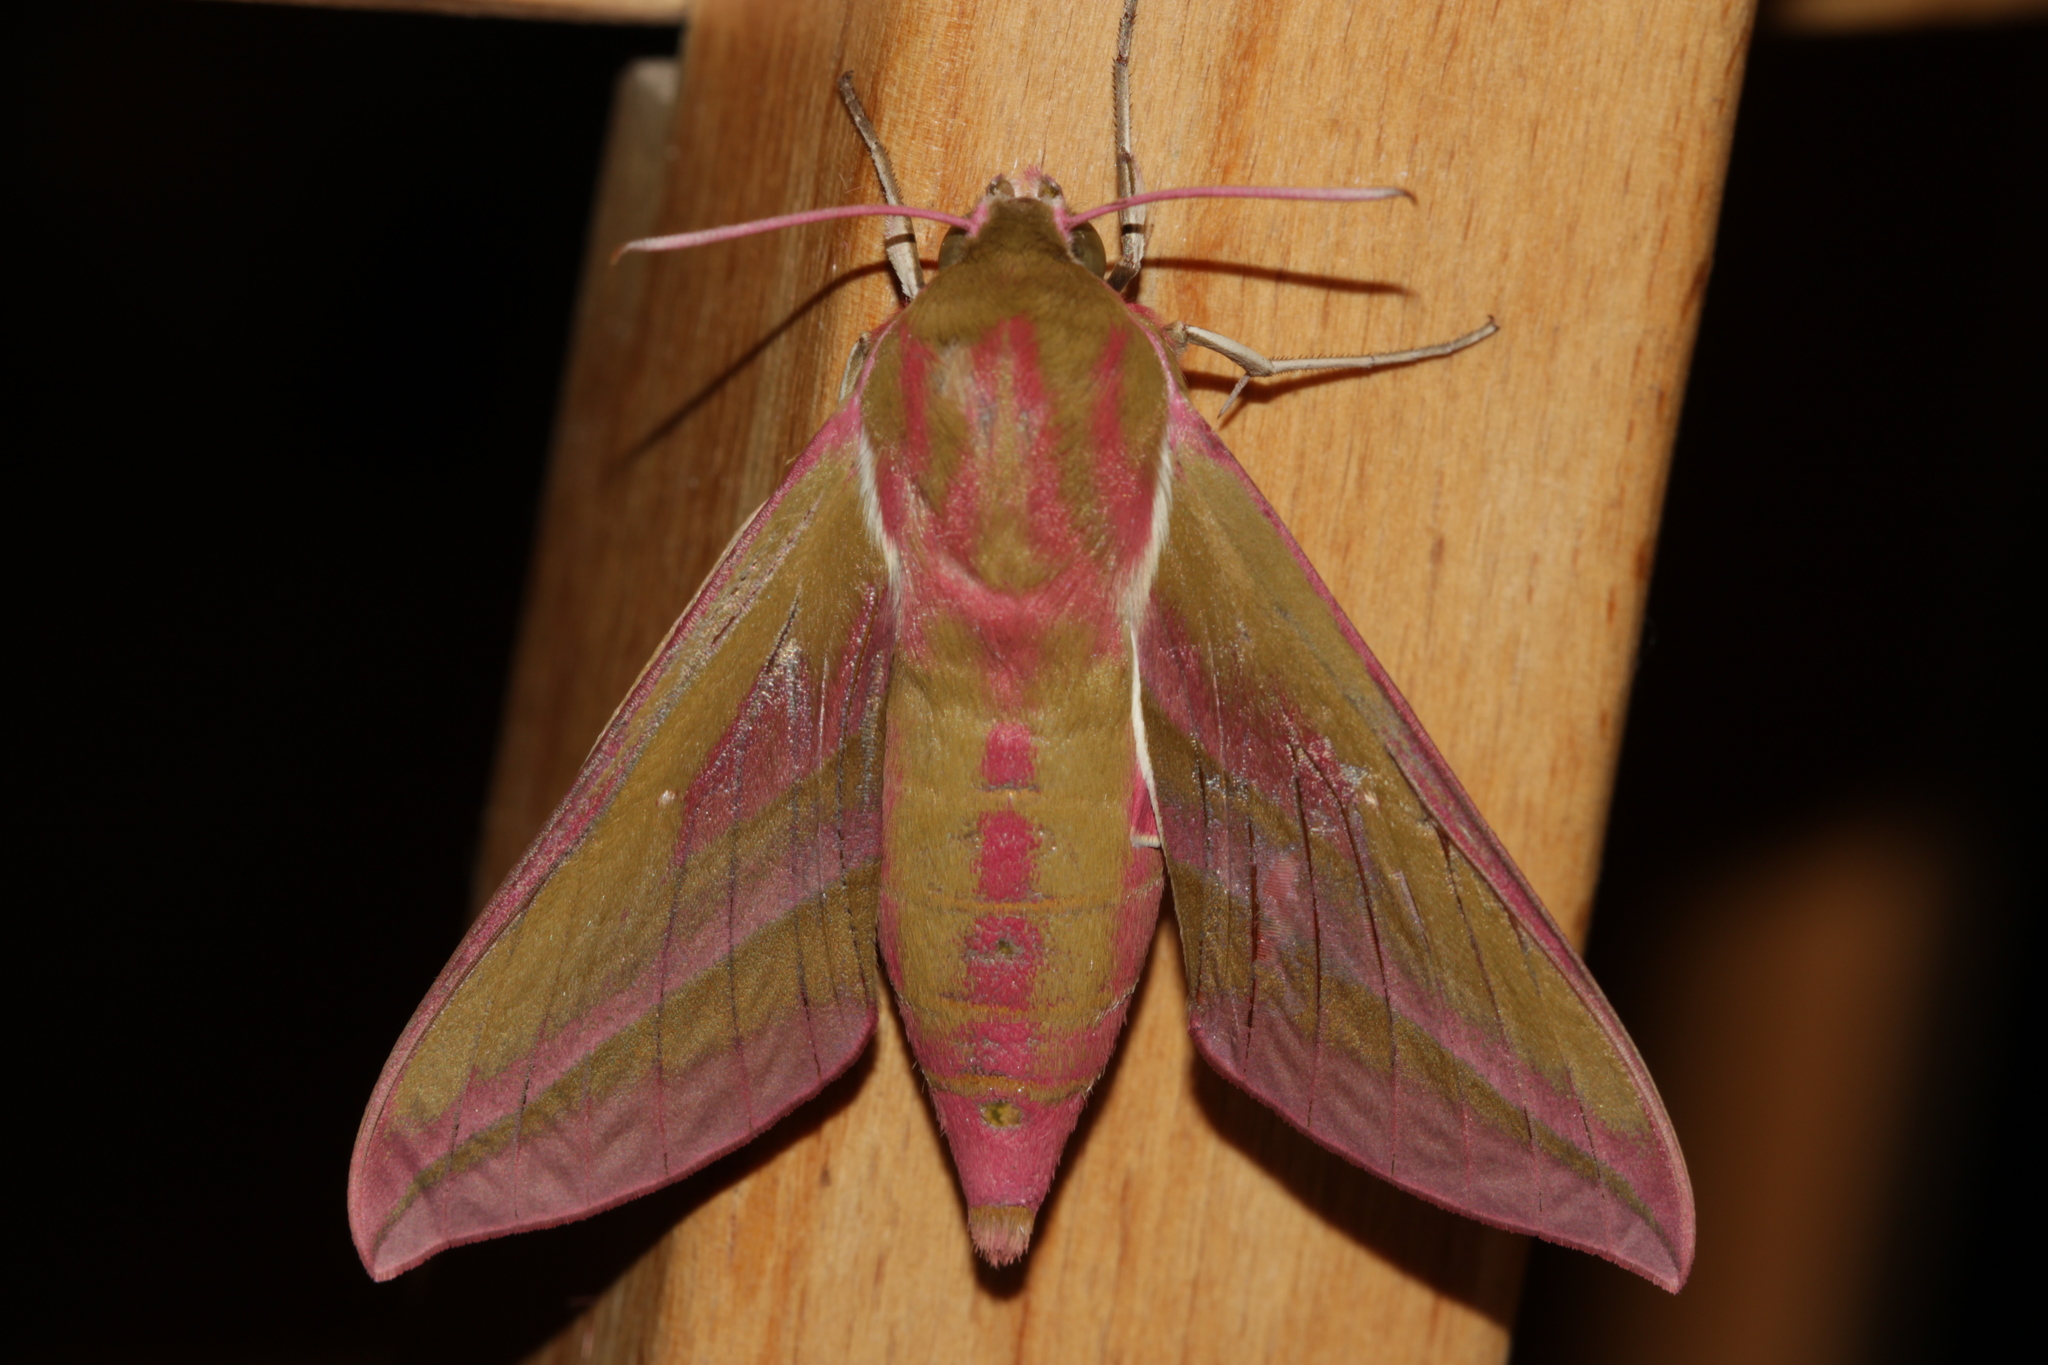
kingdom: Animalia
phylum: Arthropoda
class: Insecta
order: Lepidoptera
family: Sphingidae
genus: Deilephila
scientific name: Deilephila elpenor
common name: Elephant hawk-moth
